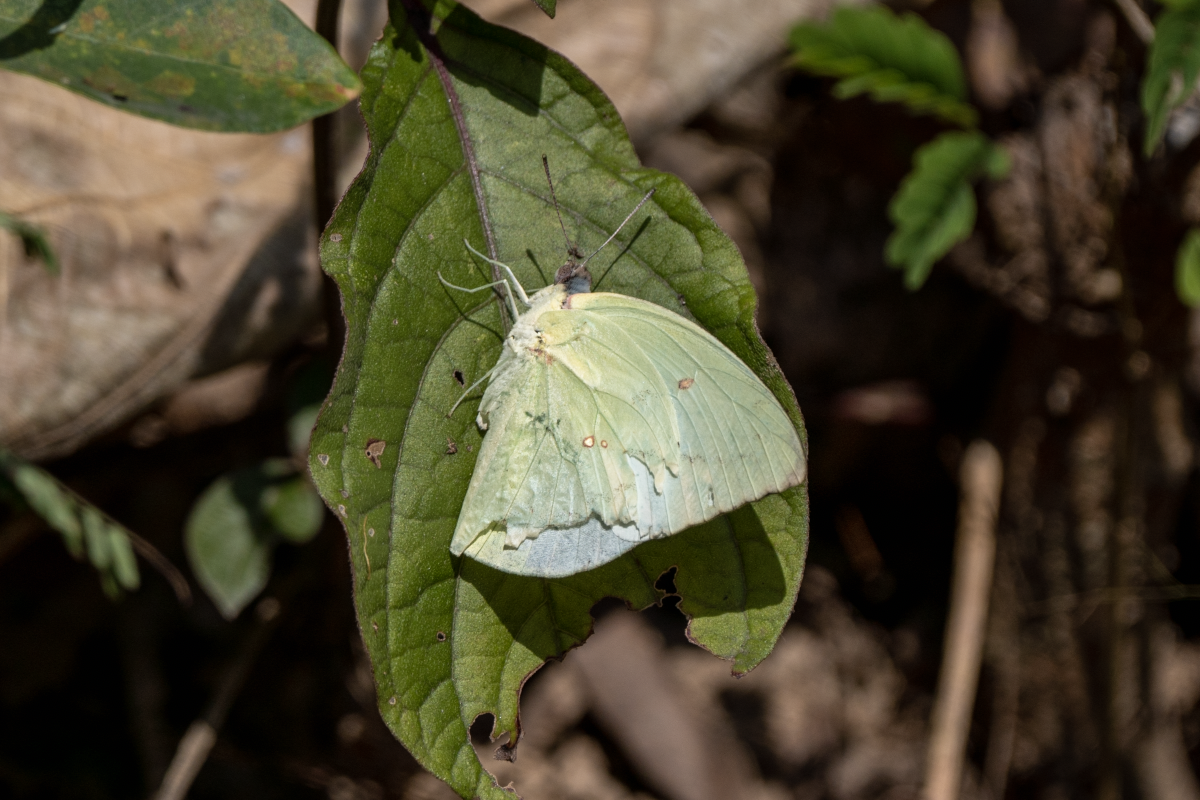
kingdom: Animalia
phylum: Arthropoda
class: Insecta
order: Lepidoptera
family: Pieridae
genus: Catopsilia
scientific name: Catopsilia pomona
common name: Common emigrant
